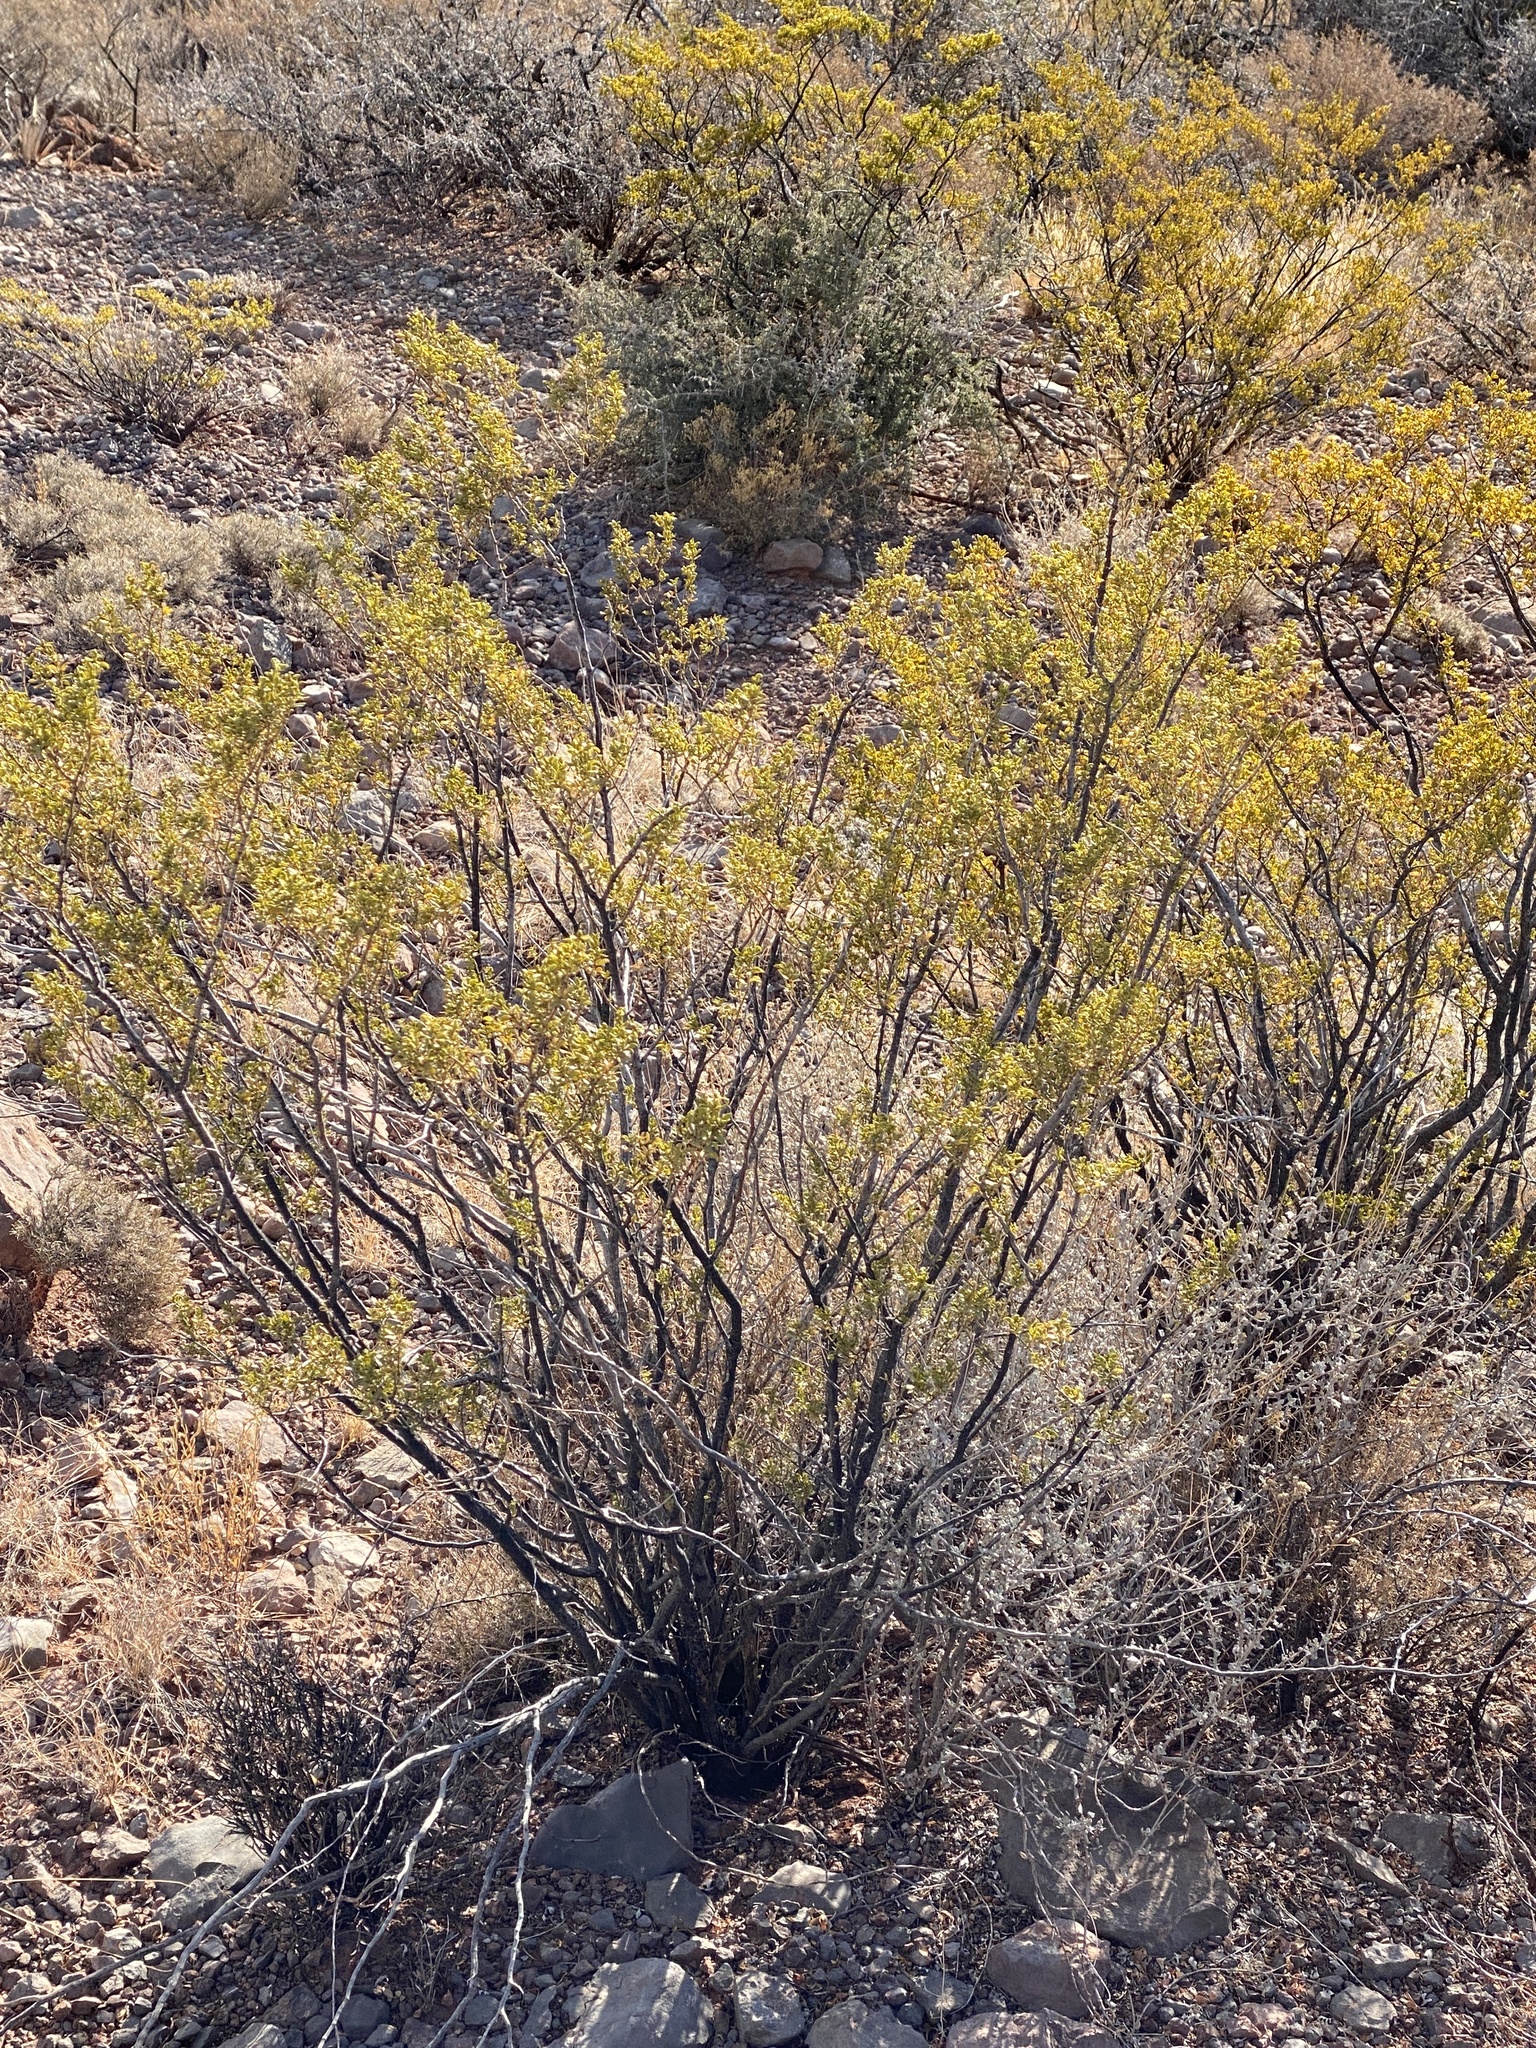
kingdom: Plantae
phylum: Tracheophyta
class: Magnoliopsida
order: Zygophyllales
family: Zygophyllaceae
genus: Larrea
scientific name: Larrea tridentata
